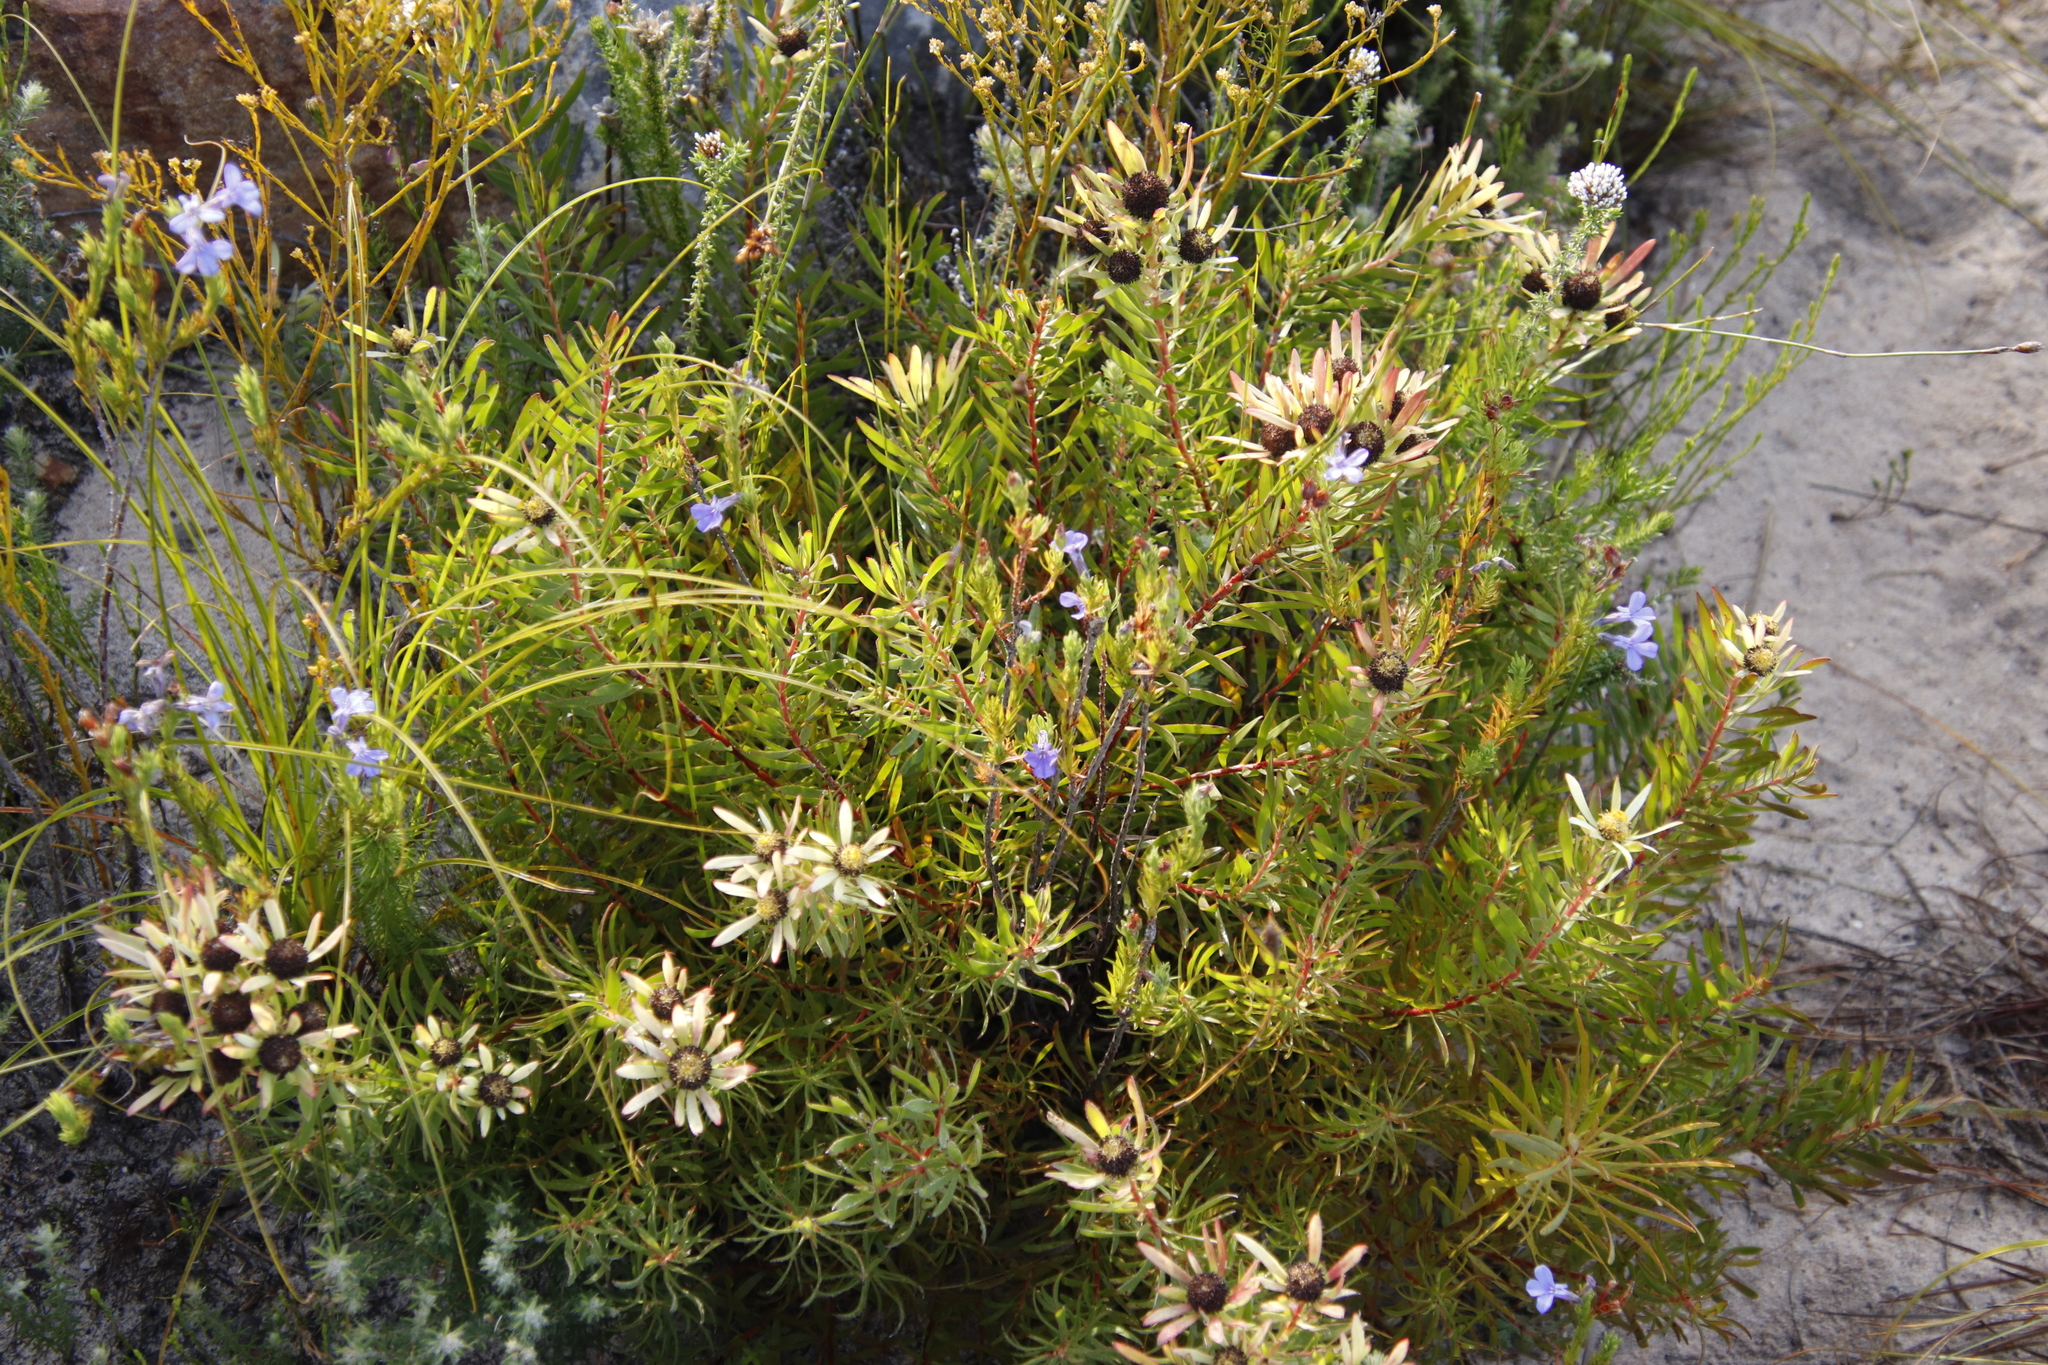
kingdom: Plantae
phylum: Tracheophyta
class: Magnoliopsida
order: Proteales
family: Proteaceae
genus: Leucadendron
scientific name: Leucadendron spissifolium
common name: Spear-leaf conebush
